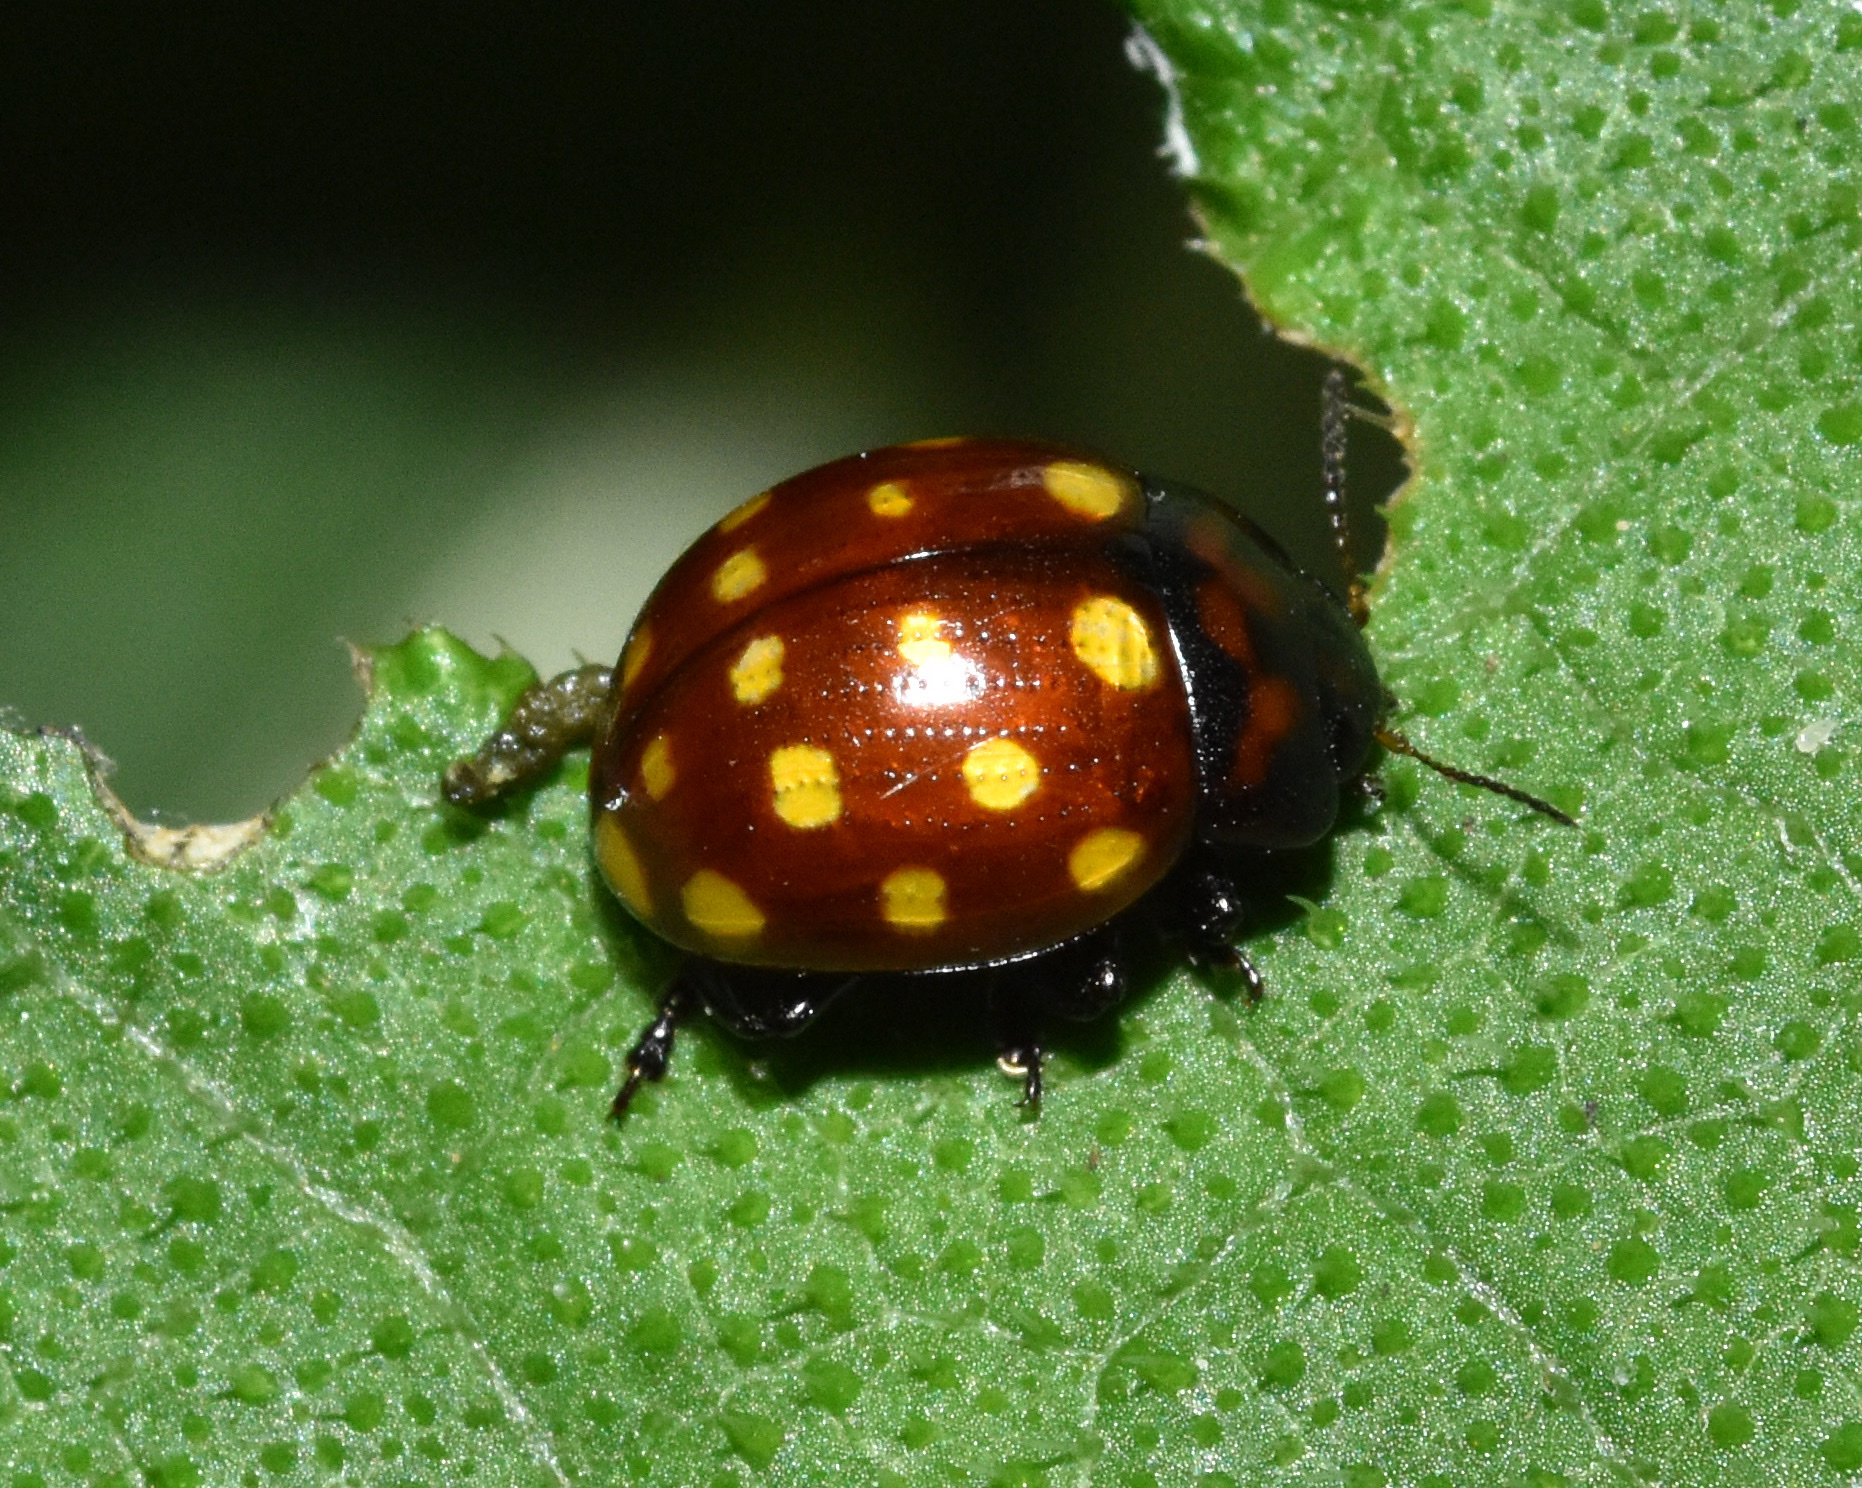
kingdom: Animalia
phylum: Arthropoda
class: Insecta
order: Coleoptera
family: Chrysomelidae
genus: Chrysolina
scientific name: Chrysolina
